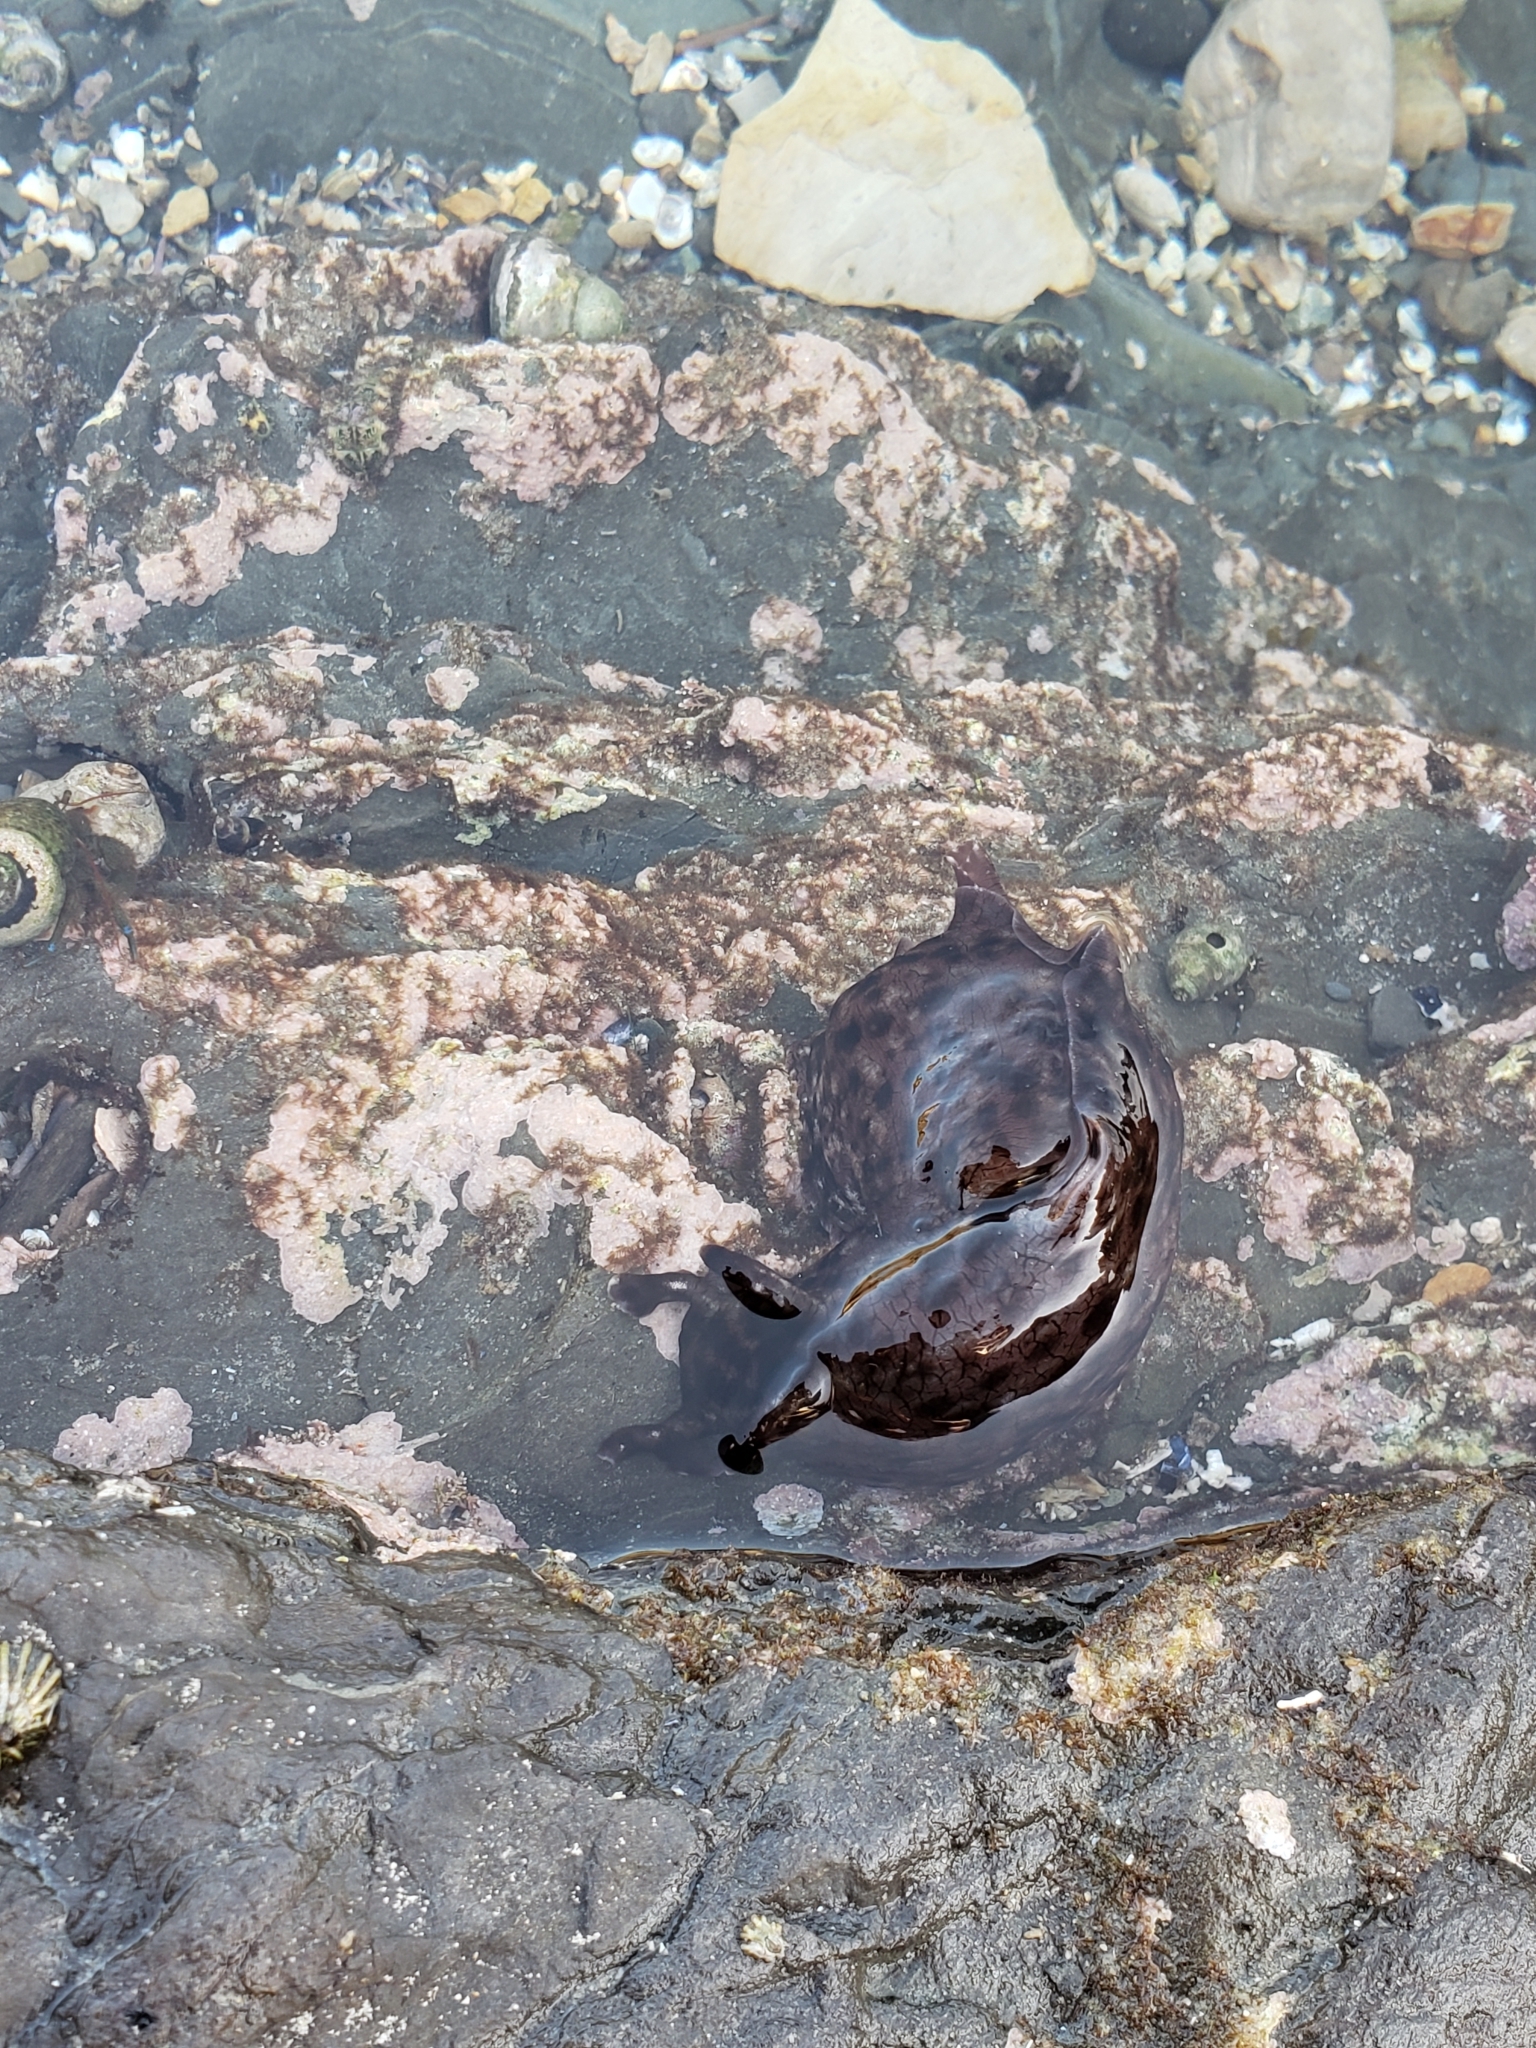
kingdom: Animalia
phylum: Mollusca
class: Gastropoda
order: Aplysiida
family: Aplysiidae
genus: Aplysia
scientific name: Aplysia californica
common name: California seahare
